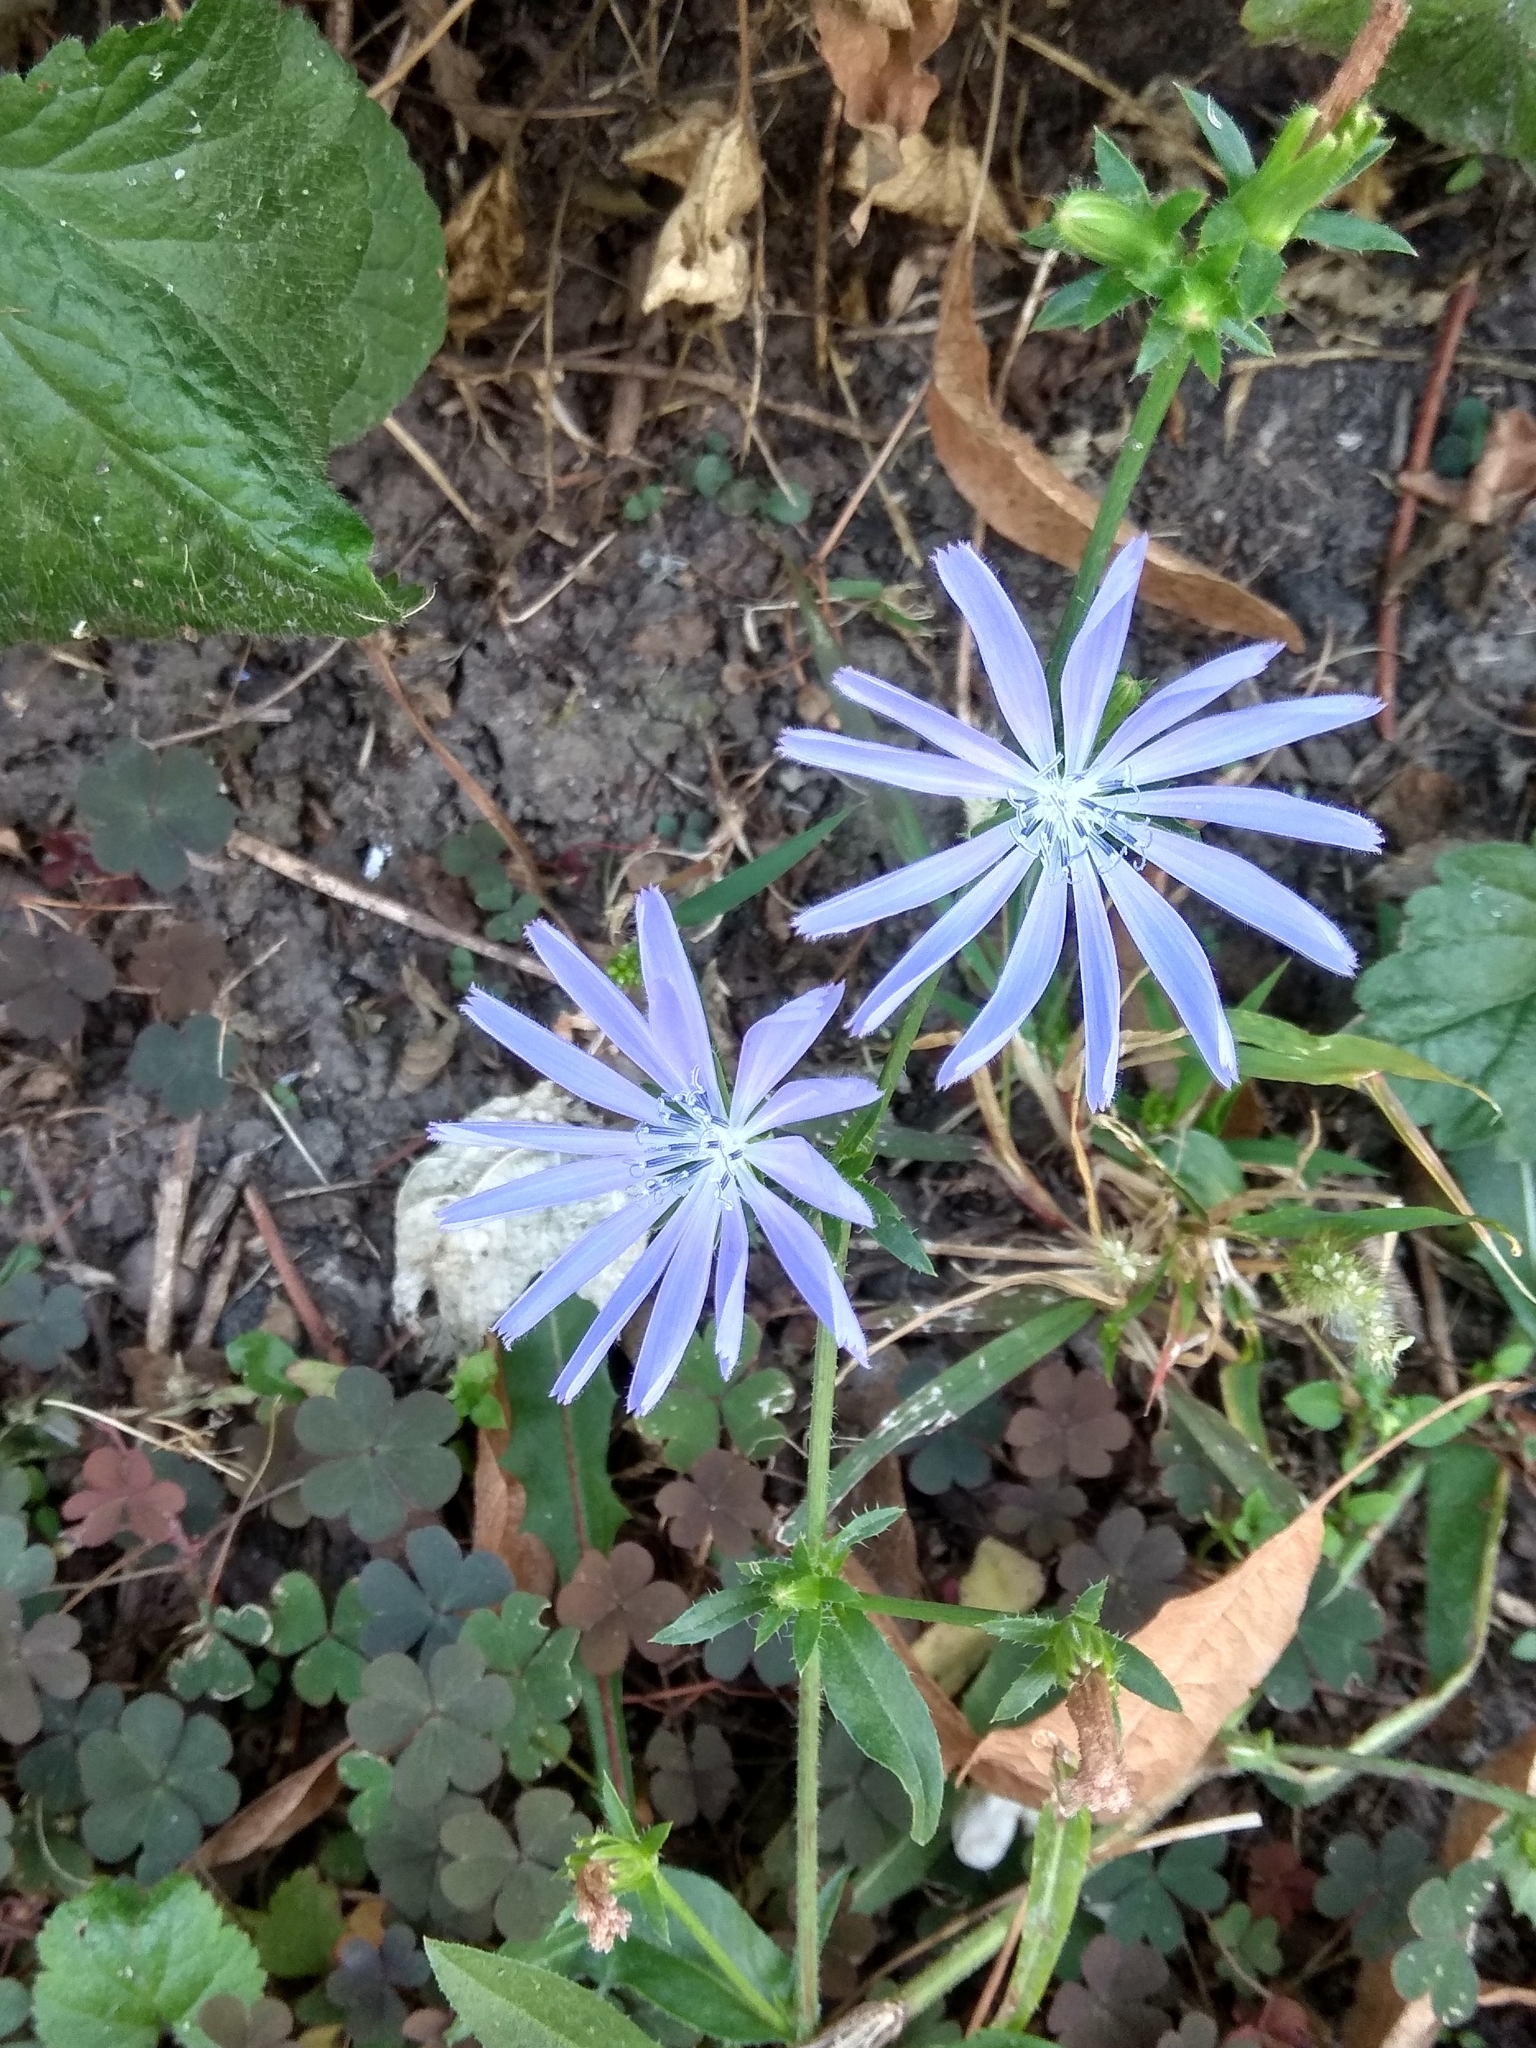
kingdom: Plantae
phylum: Tracheophyta
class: Magnoliopsida
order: Asterales
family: Asteraceae
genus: Cichorium
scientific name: Cichorium intybus
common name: Chicory
